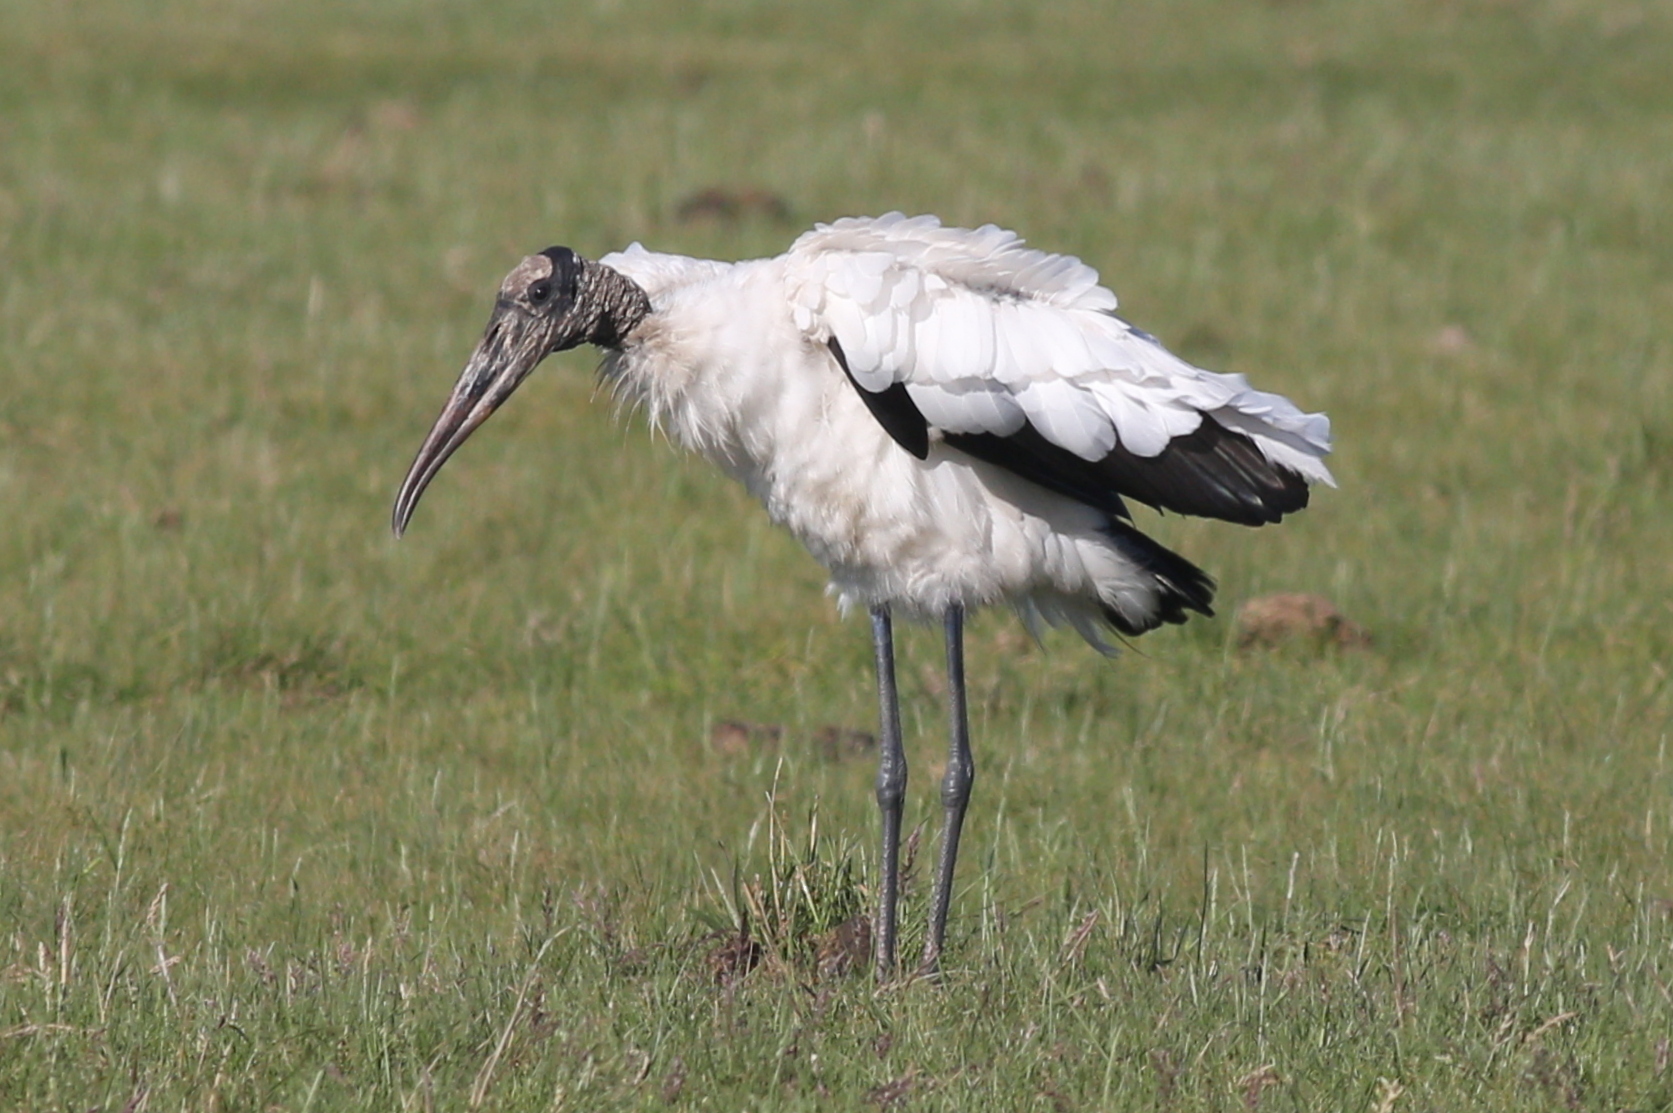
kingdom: Animalia
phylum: Chordata
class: Aves
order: Ciconiiformes
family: Ciconiidae
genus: Mycteria
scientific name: Mycteria americana
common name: Wood stork
